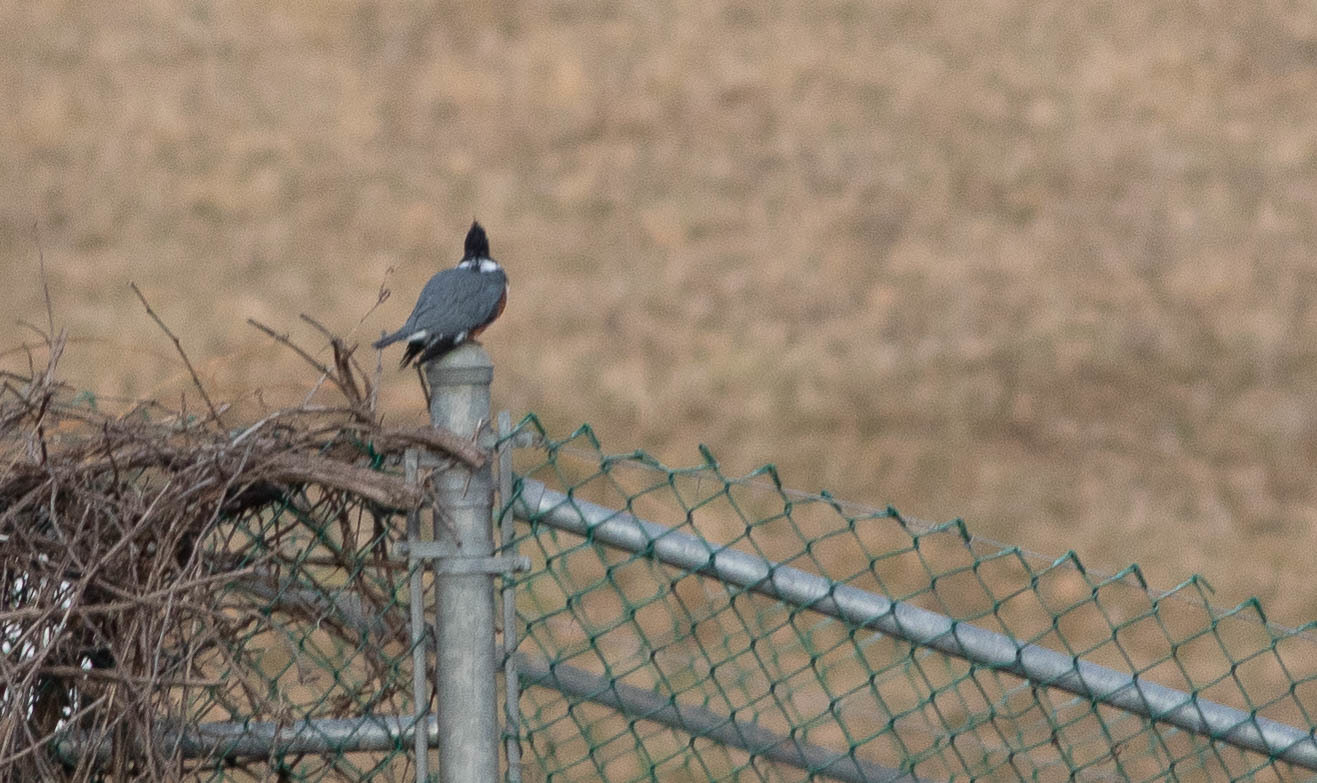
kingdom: Animalia
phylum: Chordata
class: Aves
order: Coraciiformes
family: Alcedinidae
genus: Megaceryle
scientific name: Megaceryle alcyon
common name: Belted kingfisher
